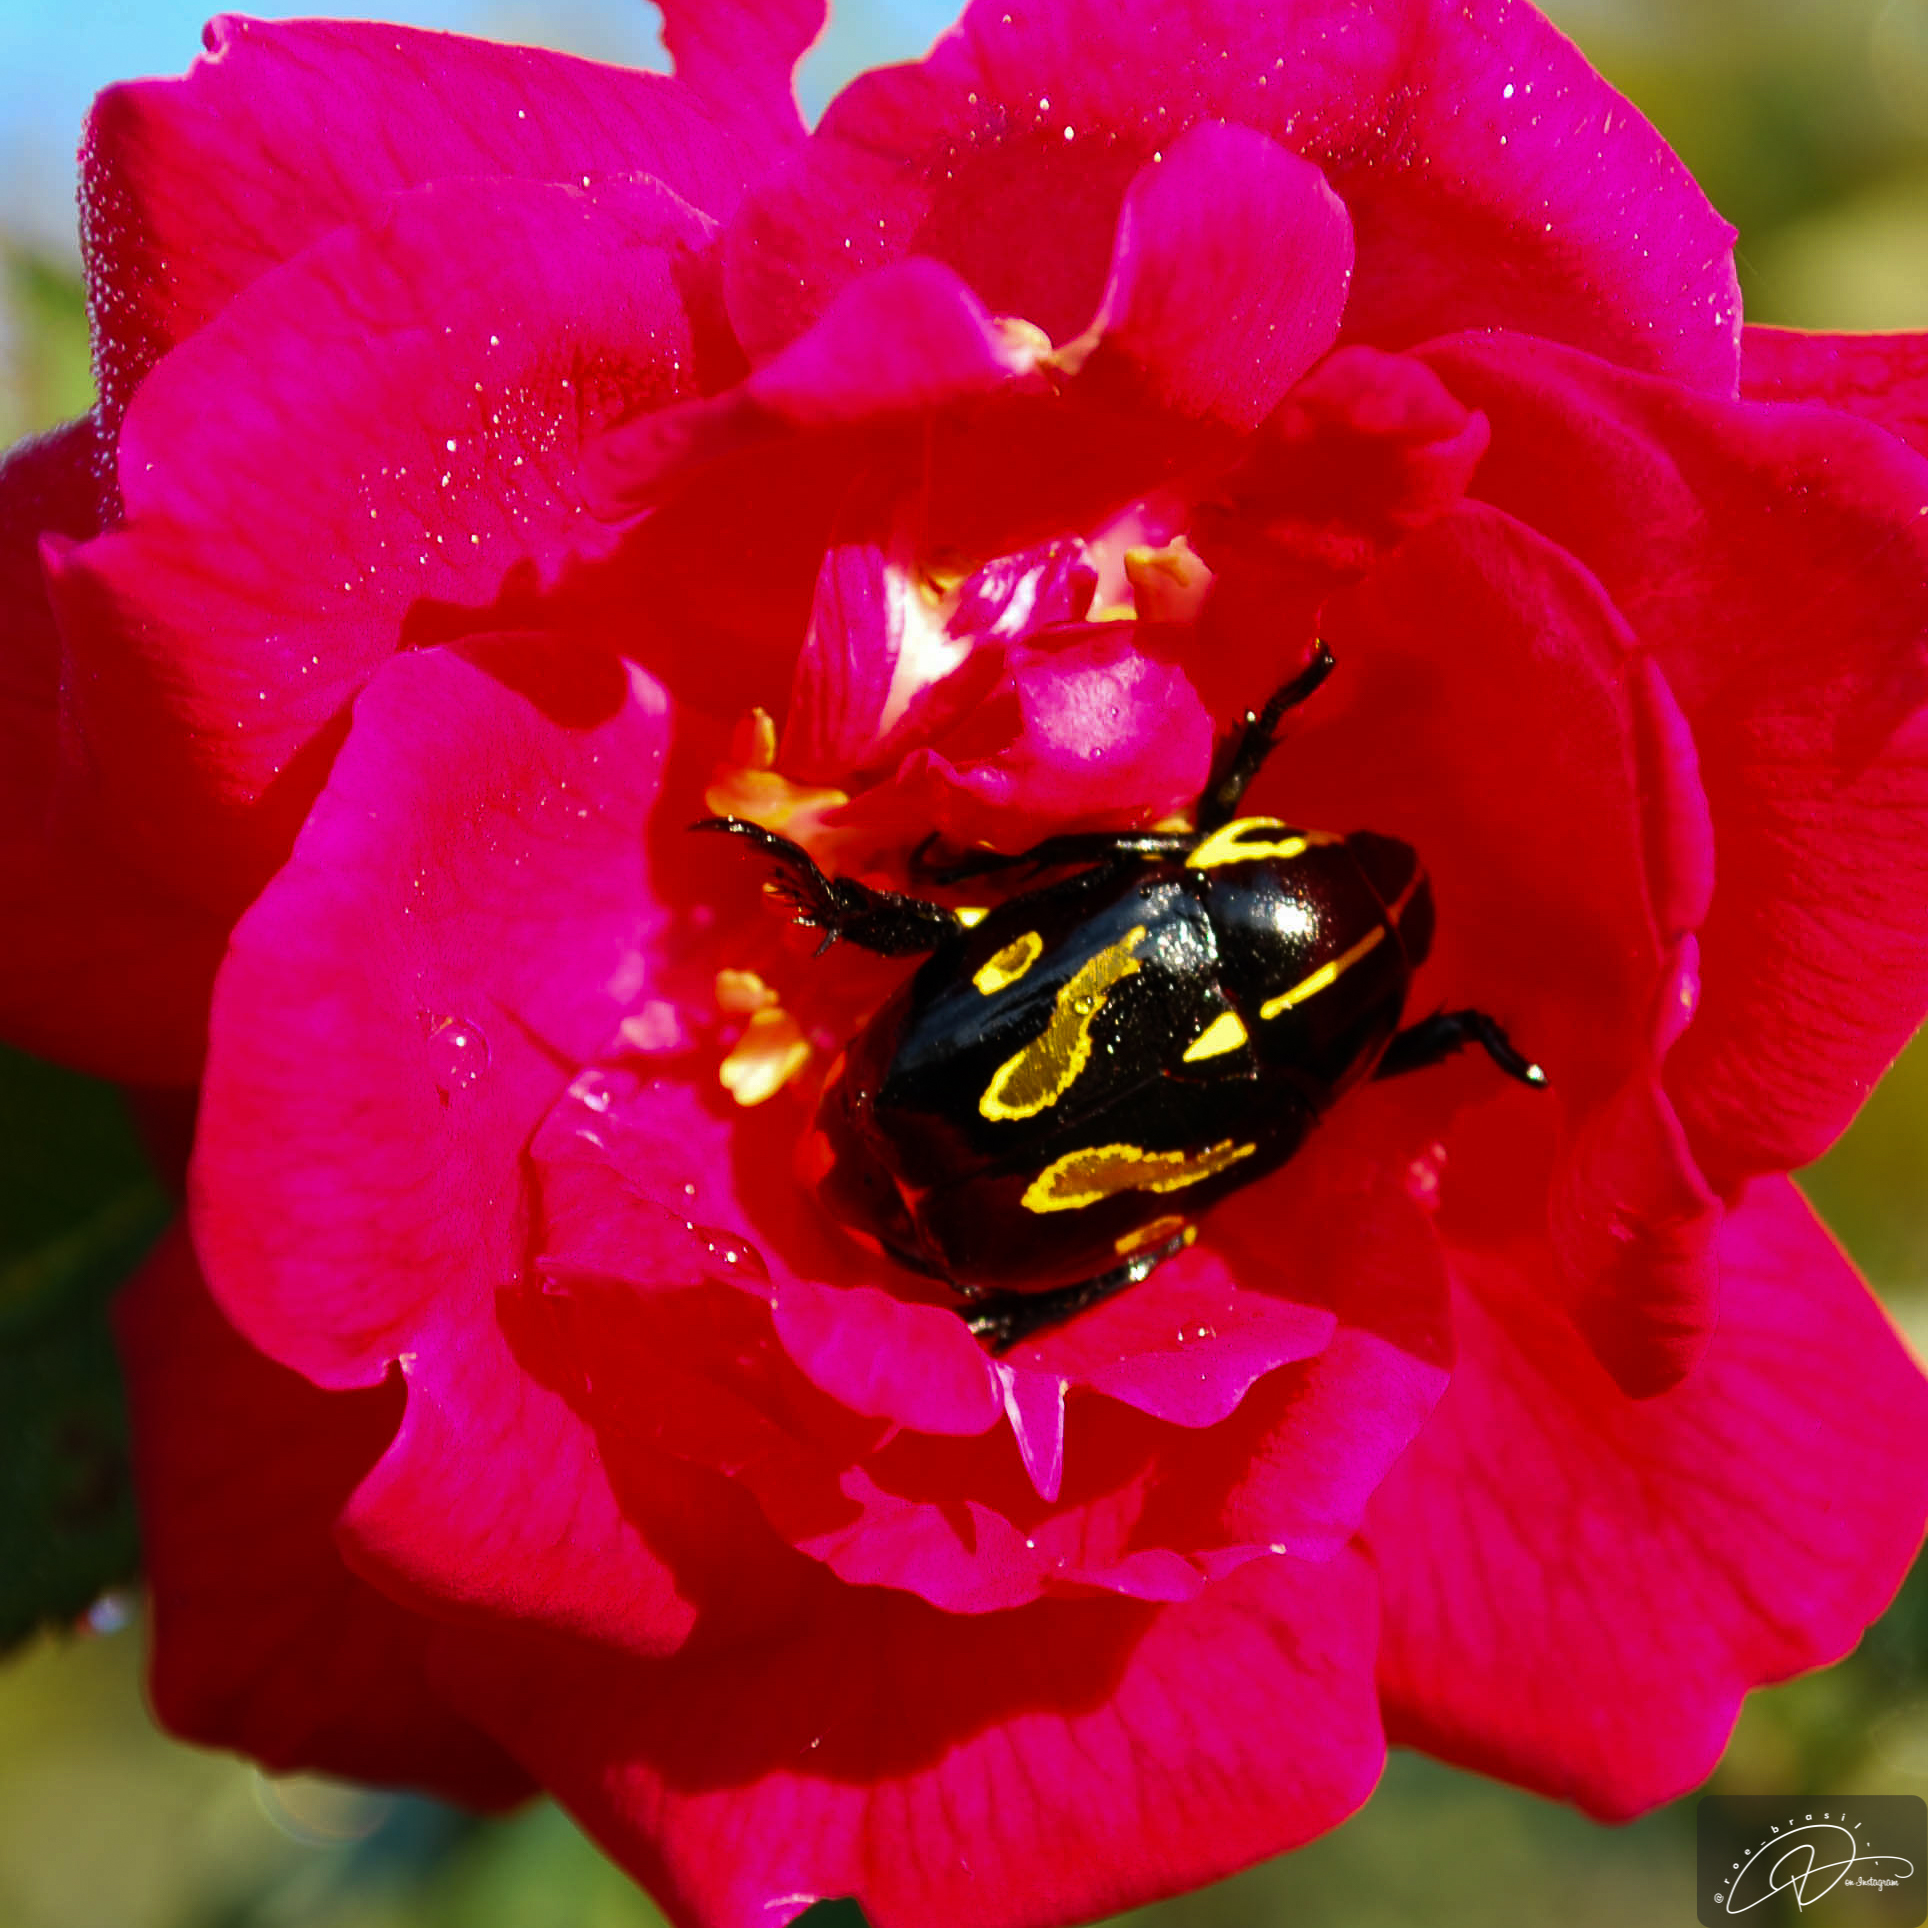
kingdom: Animalia
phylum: Arthropoda
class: Insecta
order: Coleoptera
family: Scarabaeidae
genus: Rutela
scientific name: Rutela lineola
